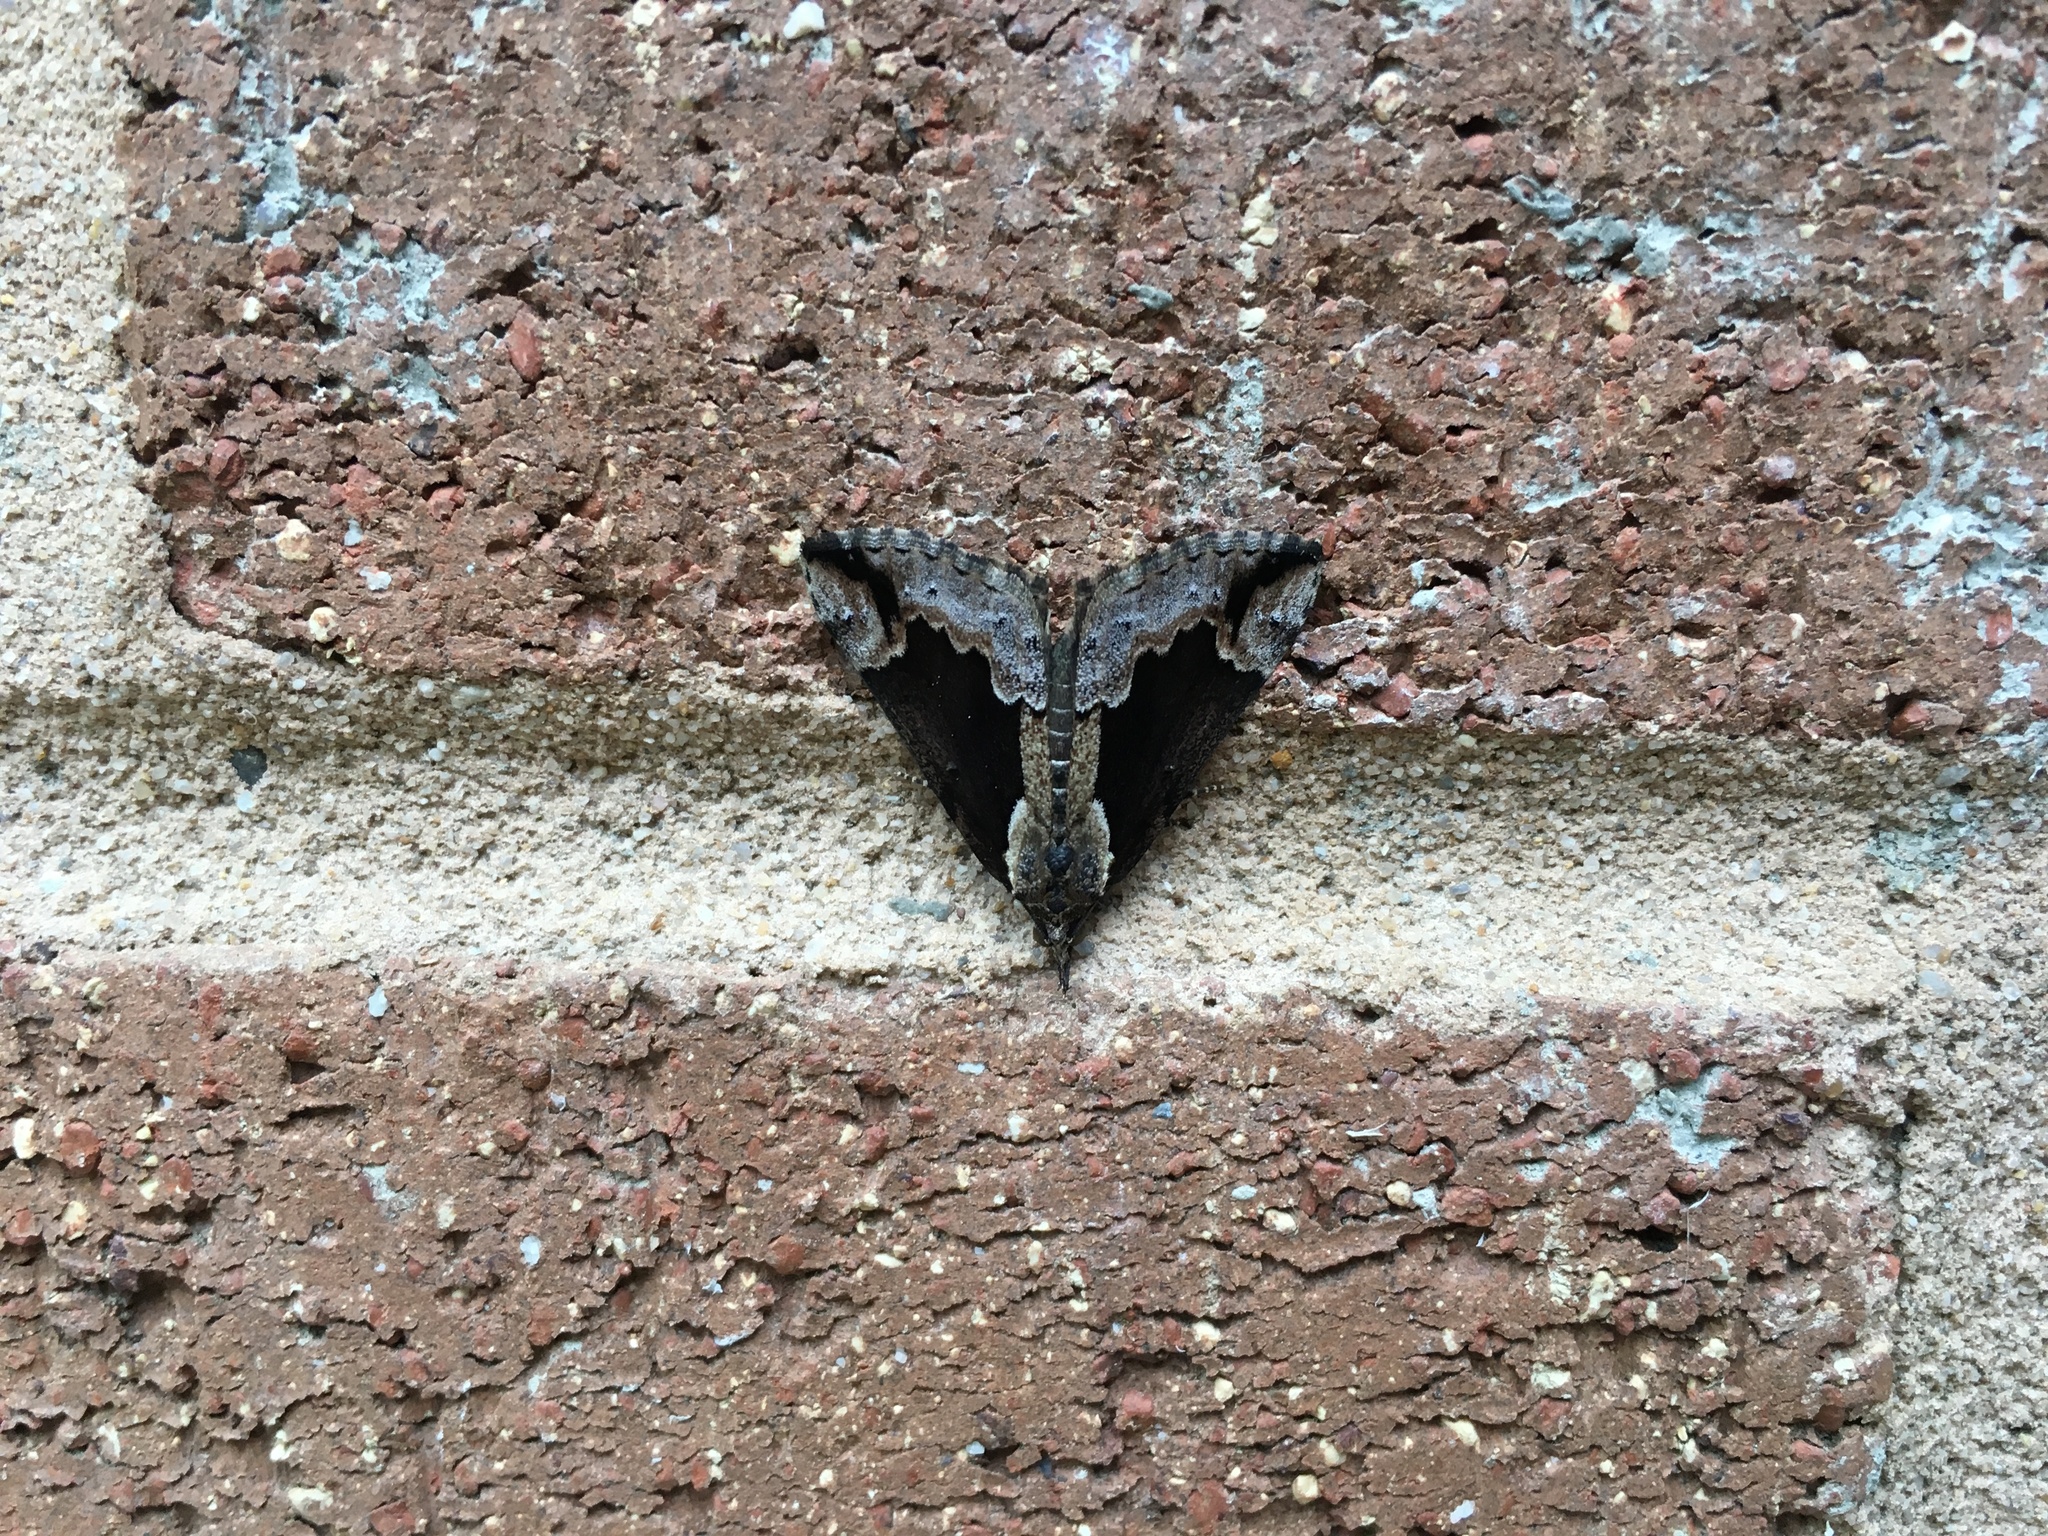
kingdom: Animalia
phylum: Arthropoda
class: Insecta
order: Lepidoptera
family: Erebidae
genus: Hypena
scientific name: Hypena baltimoralis
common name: Baltimore snout
